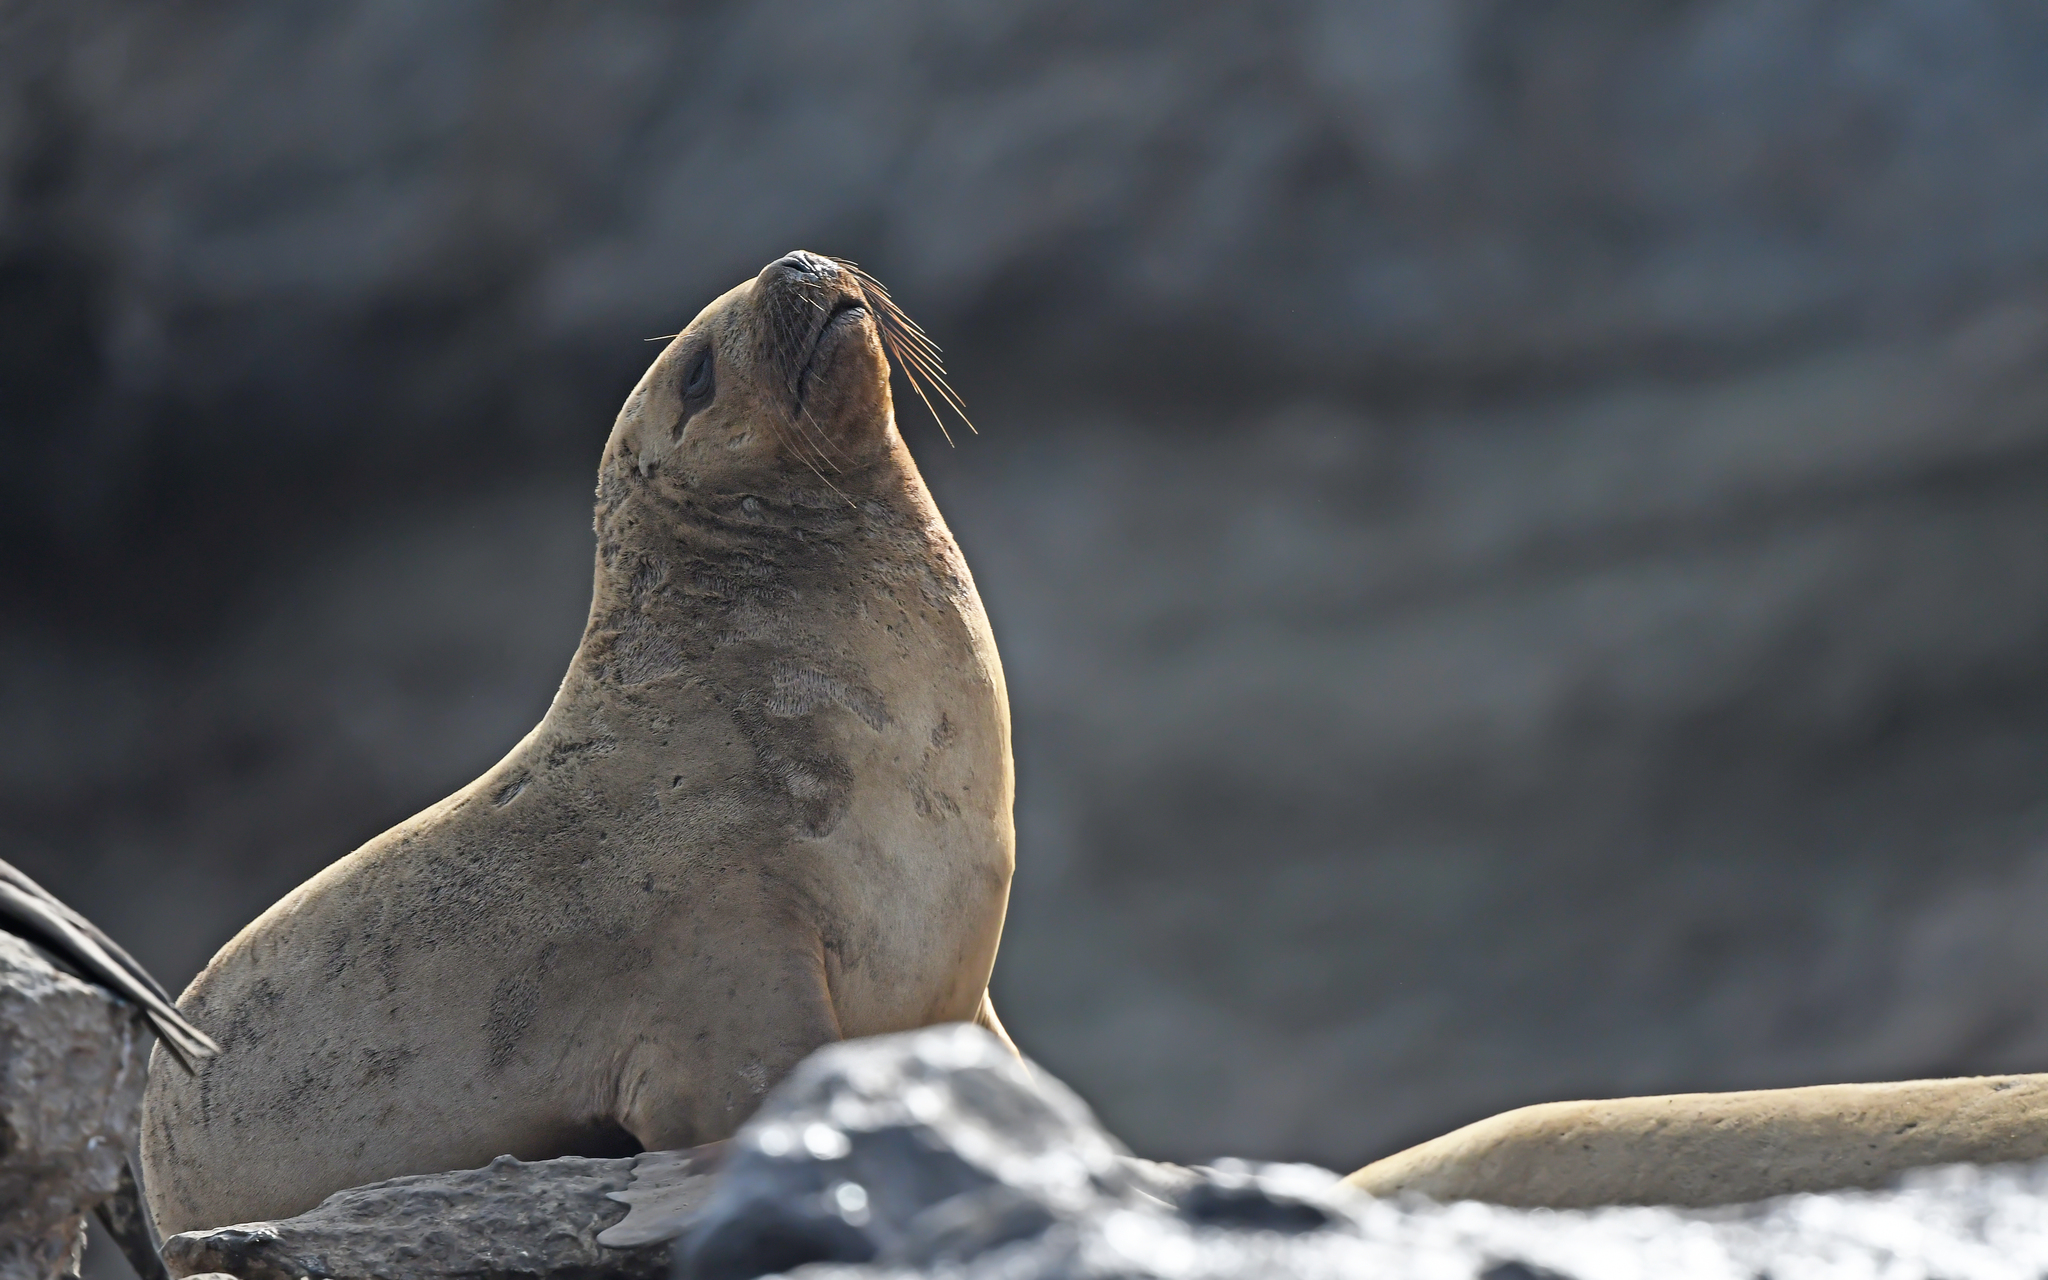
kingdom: Animalia
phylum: Chordata
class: Mammalia
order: Carnivora
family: Otariidae
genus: Otaria
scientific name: Otaria byronia
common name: South american sea lion
